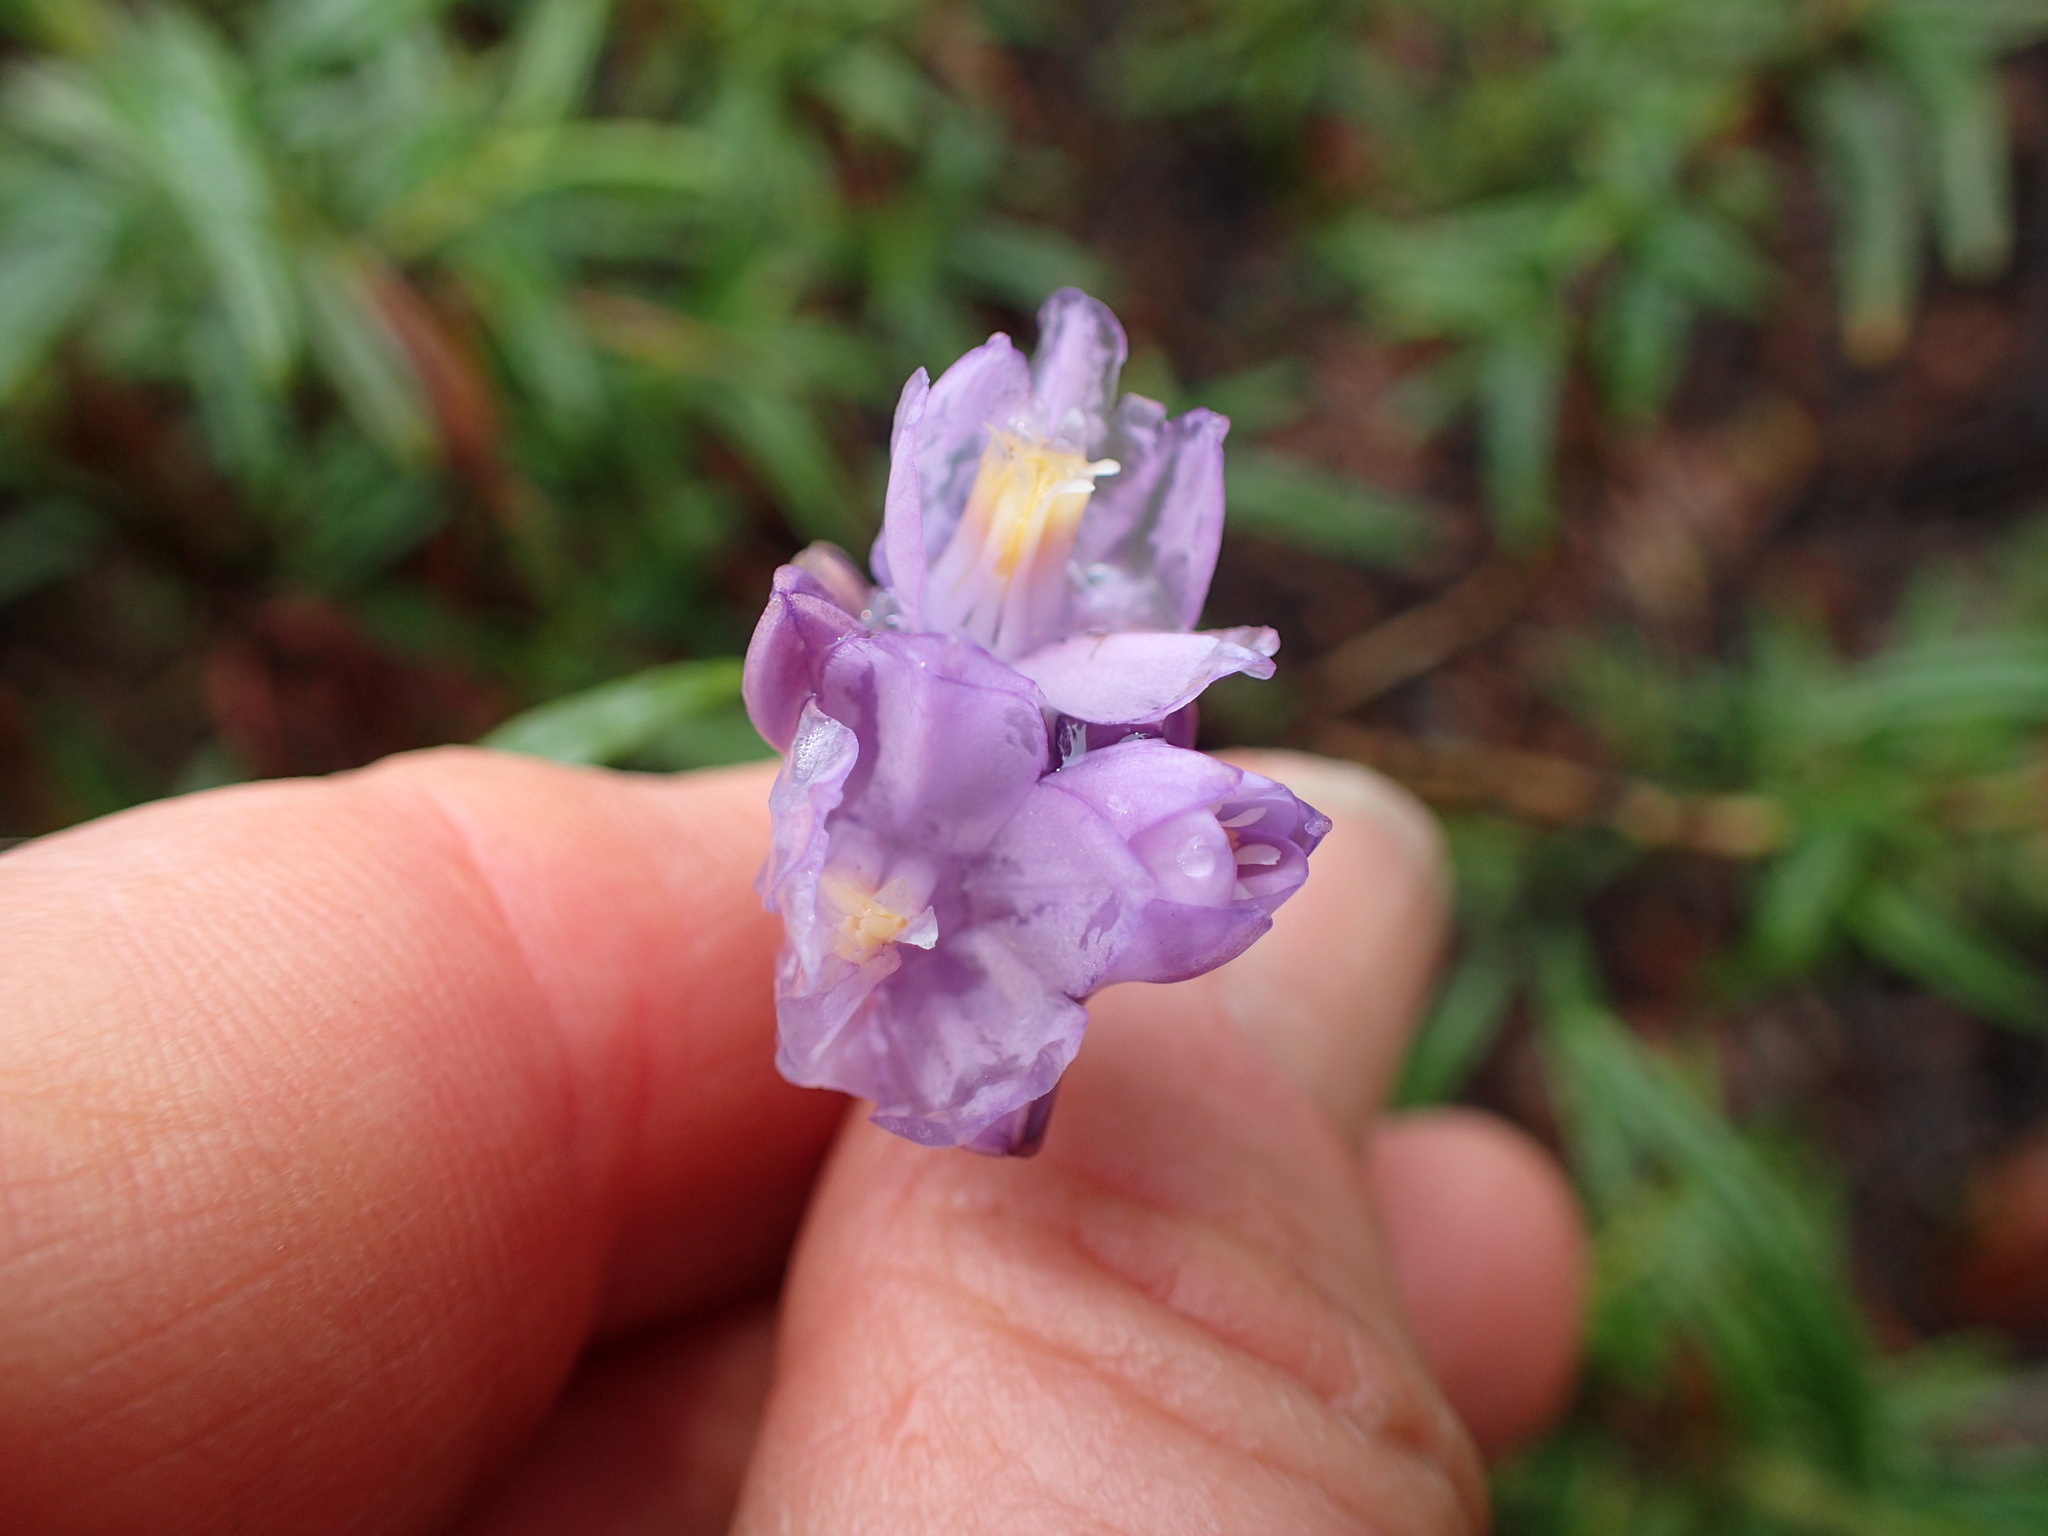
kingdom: Plantae
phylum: Tracheophyta
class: Liliopsida
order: Asparagales
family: Asparagaceae
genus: Dipterostemon
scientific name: Dipterostemon capitatus
